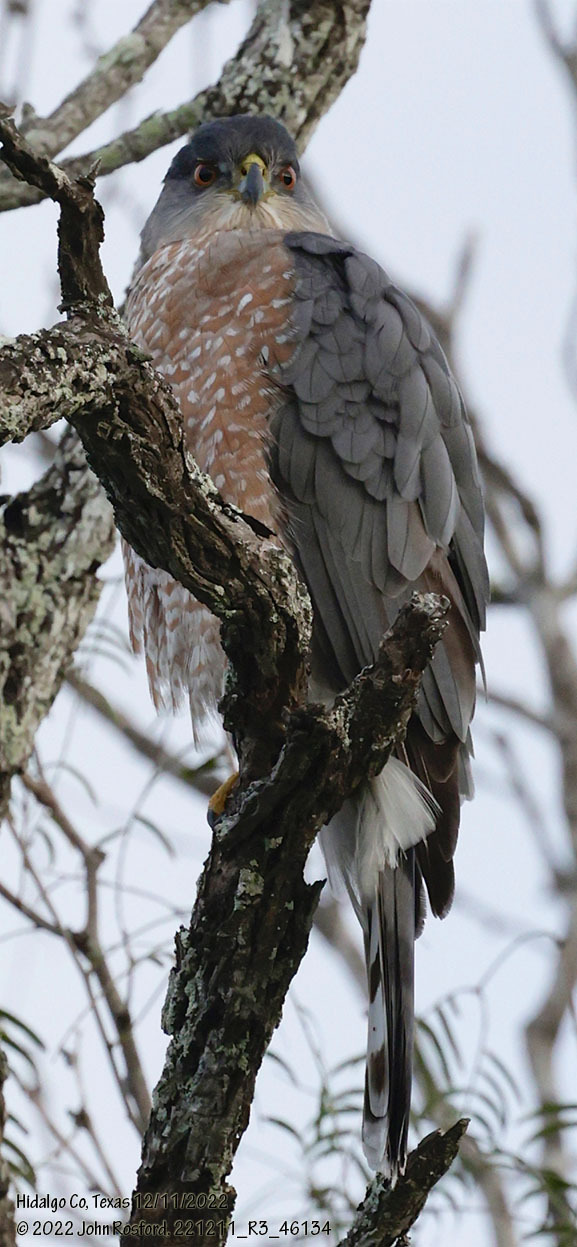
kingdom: Animalia
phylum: Chordata
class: Aves
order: Accipitriformes
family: Accipitridae
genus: Accipiter
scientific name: Accipiter cooperii
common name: Cooper's hawk
